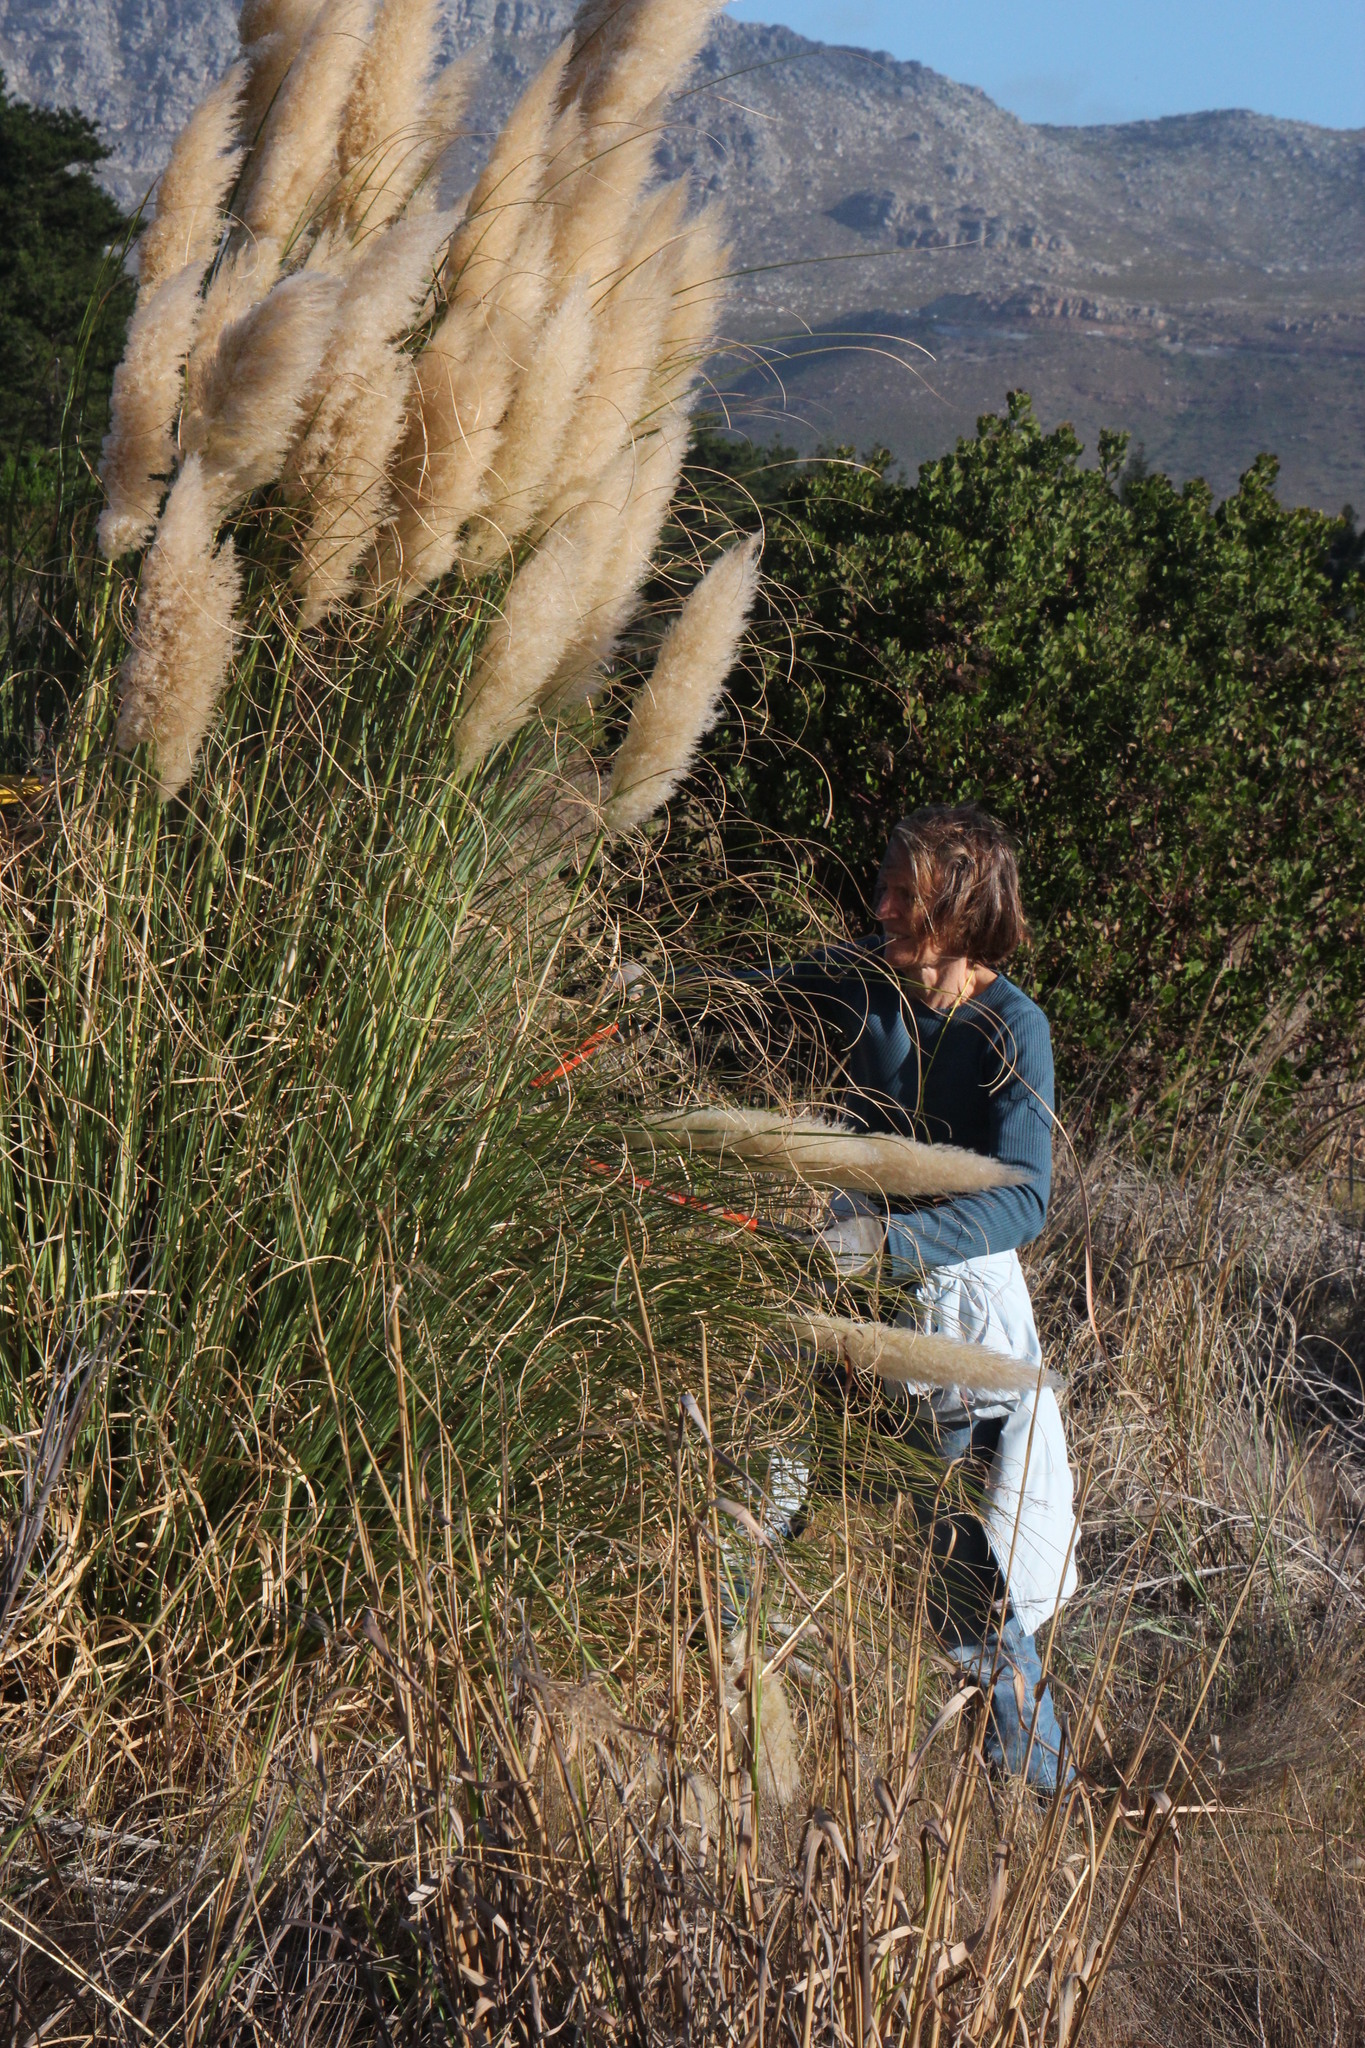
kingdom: Plantae
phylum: Tracheophyta
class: Liliopsida
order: Poales
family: Poaceae
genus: Cortaderia
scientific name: Cortaderia selloana
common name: Uruguayan pampas grass
